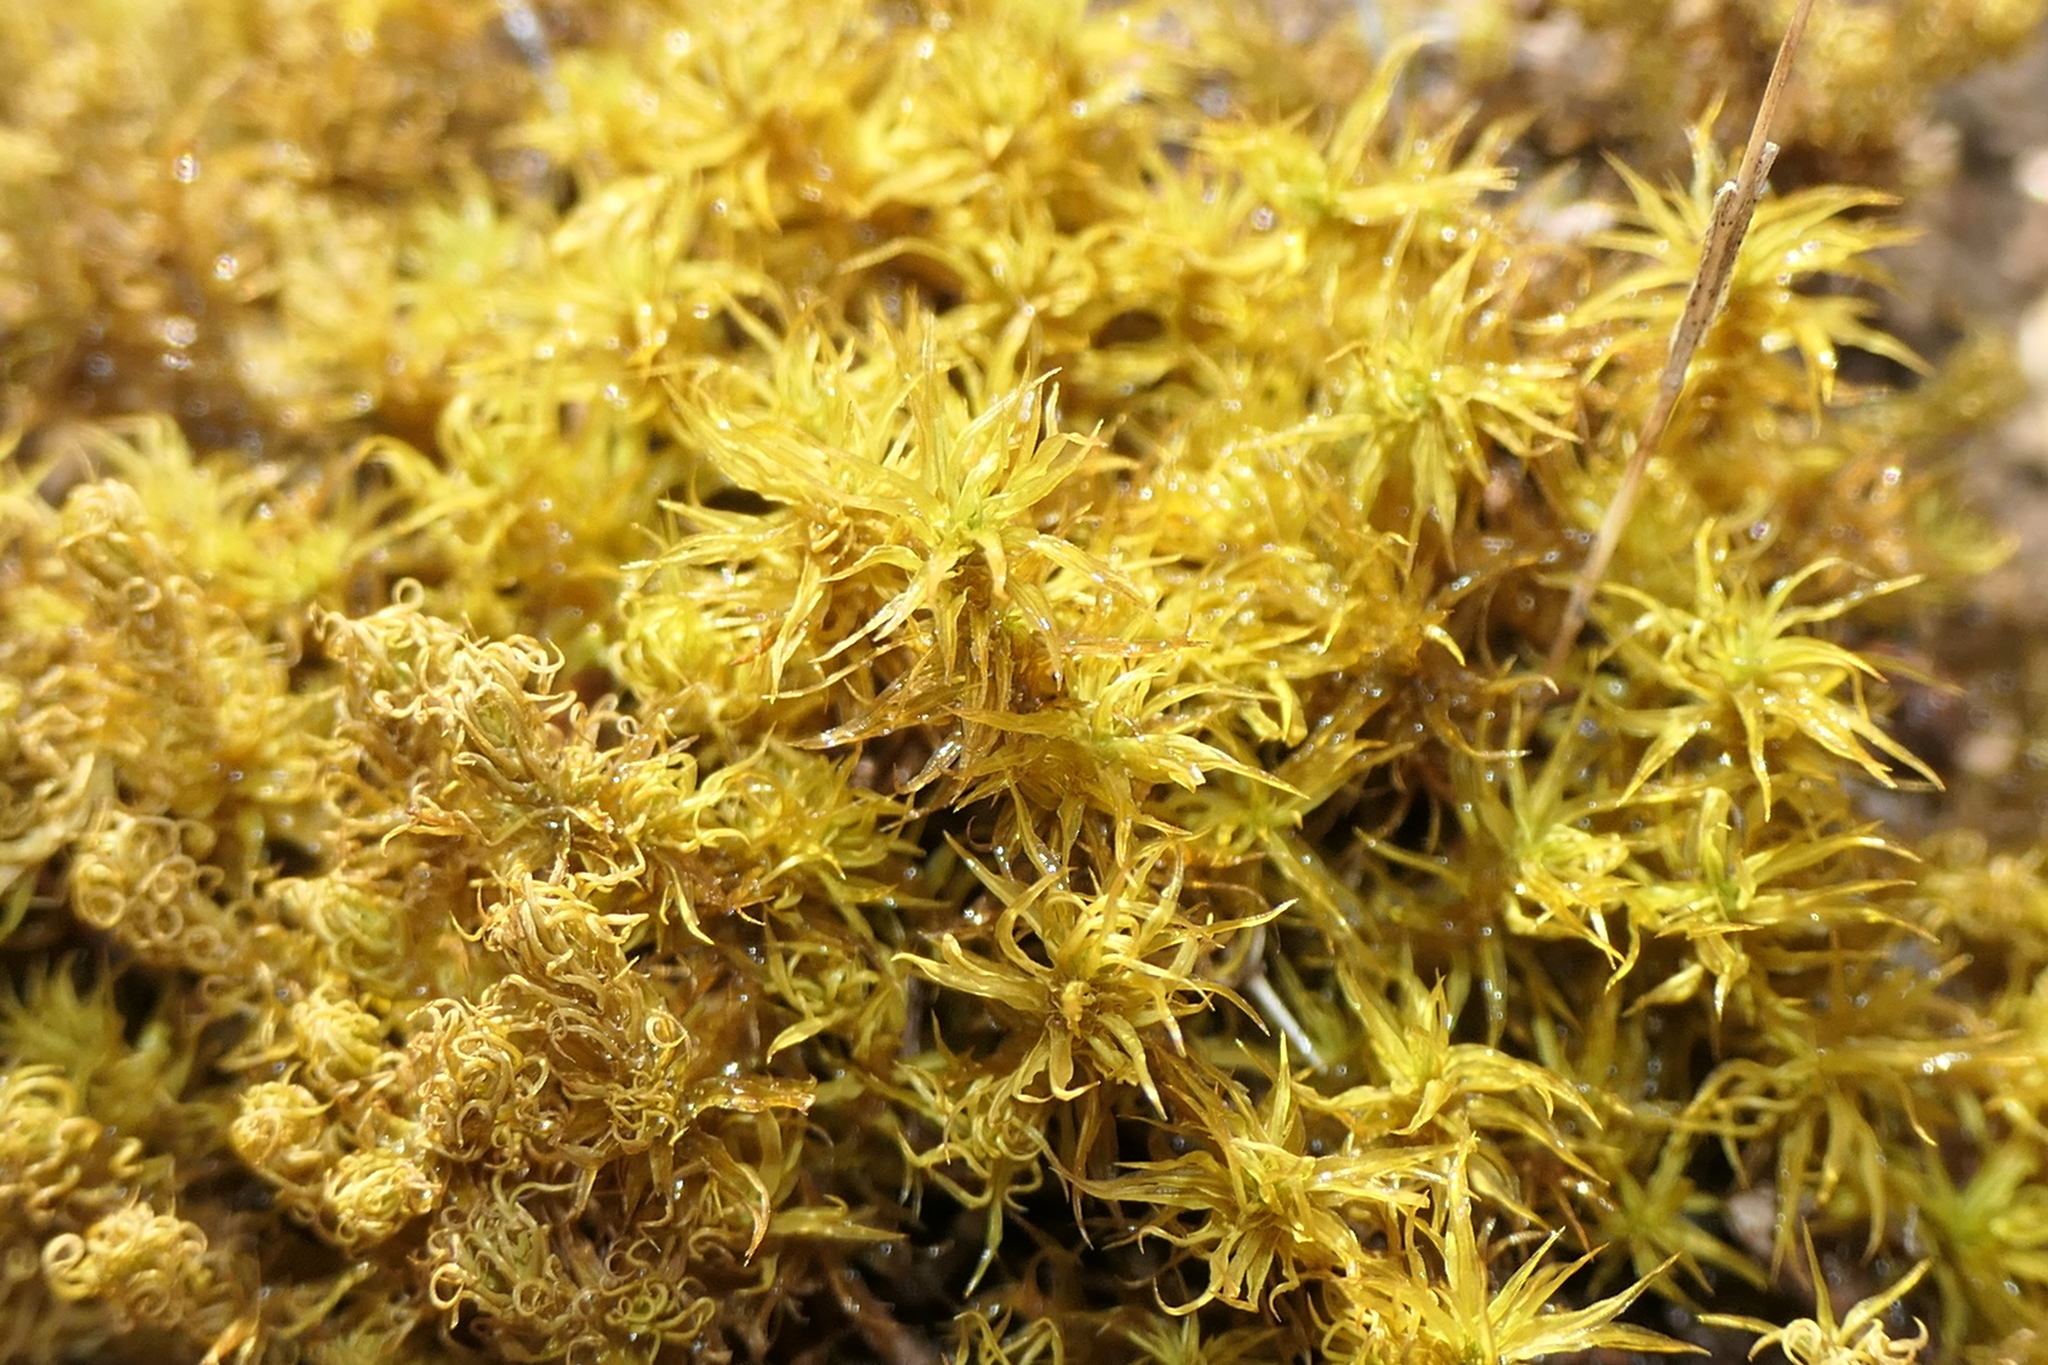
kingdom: Plantae
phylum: Bryophyta
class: Bryopsida
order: Pottiales
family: Pottiaceae
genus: Pleurochaete
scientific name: Pleurochaete squarrosa
